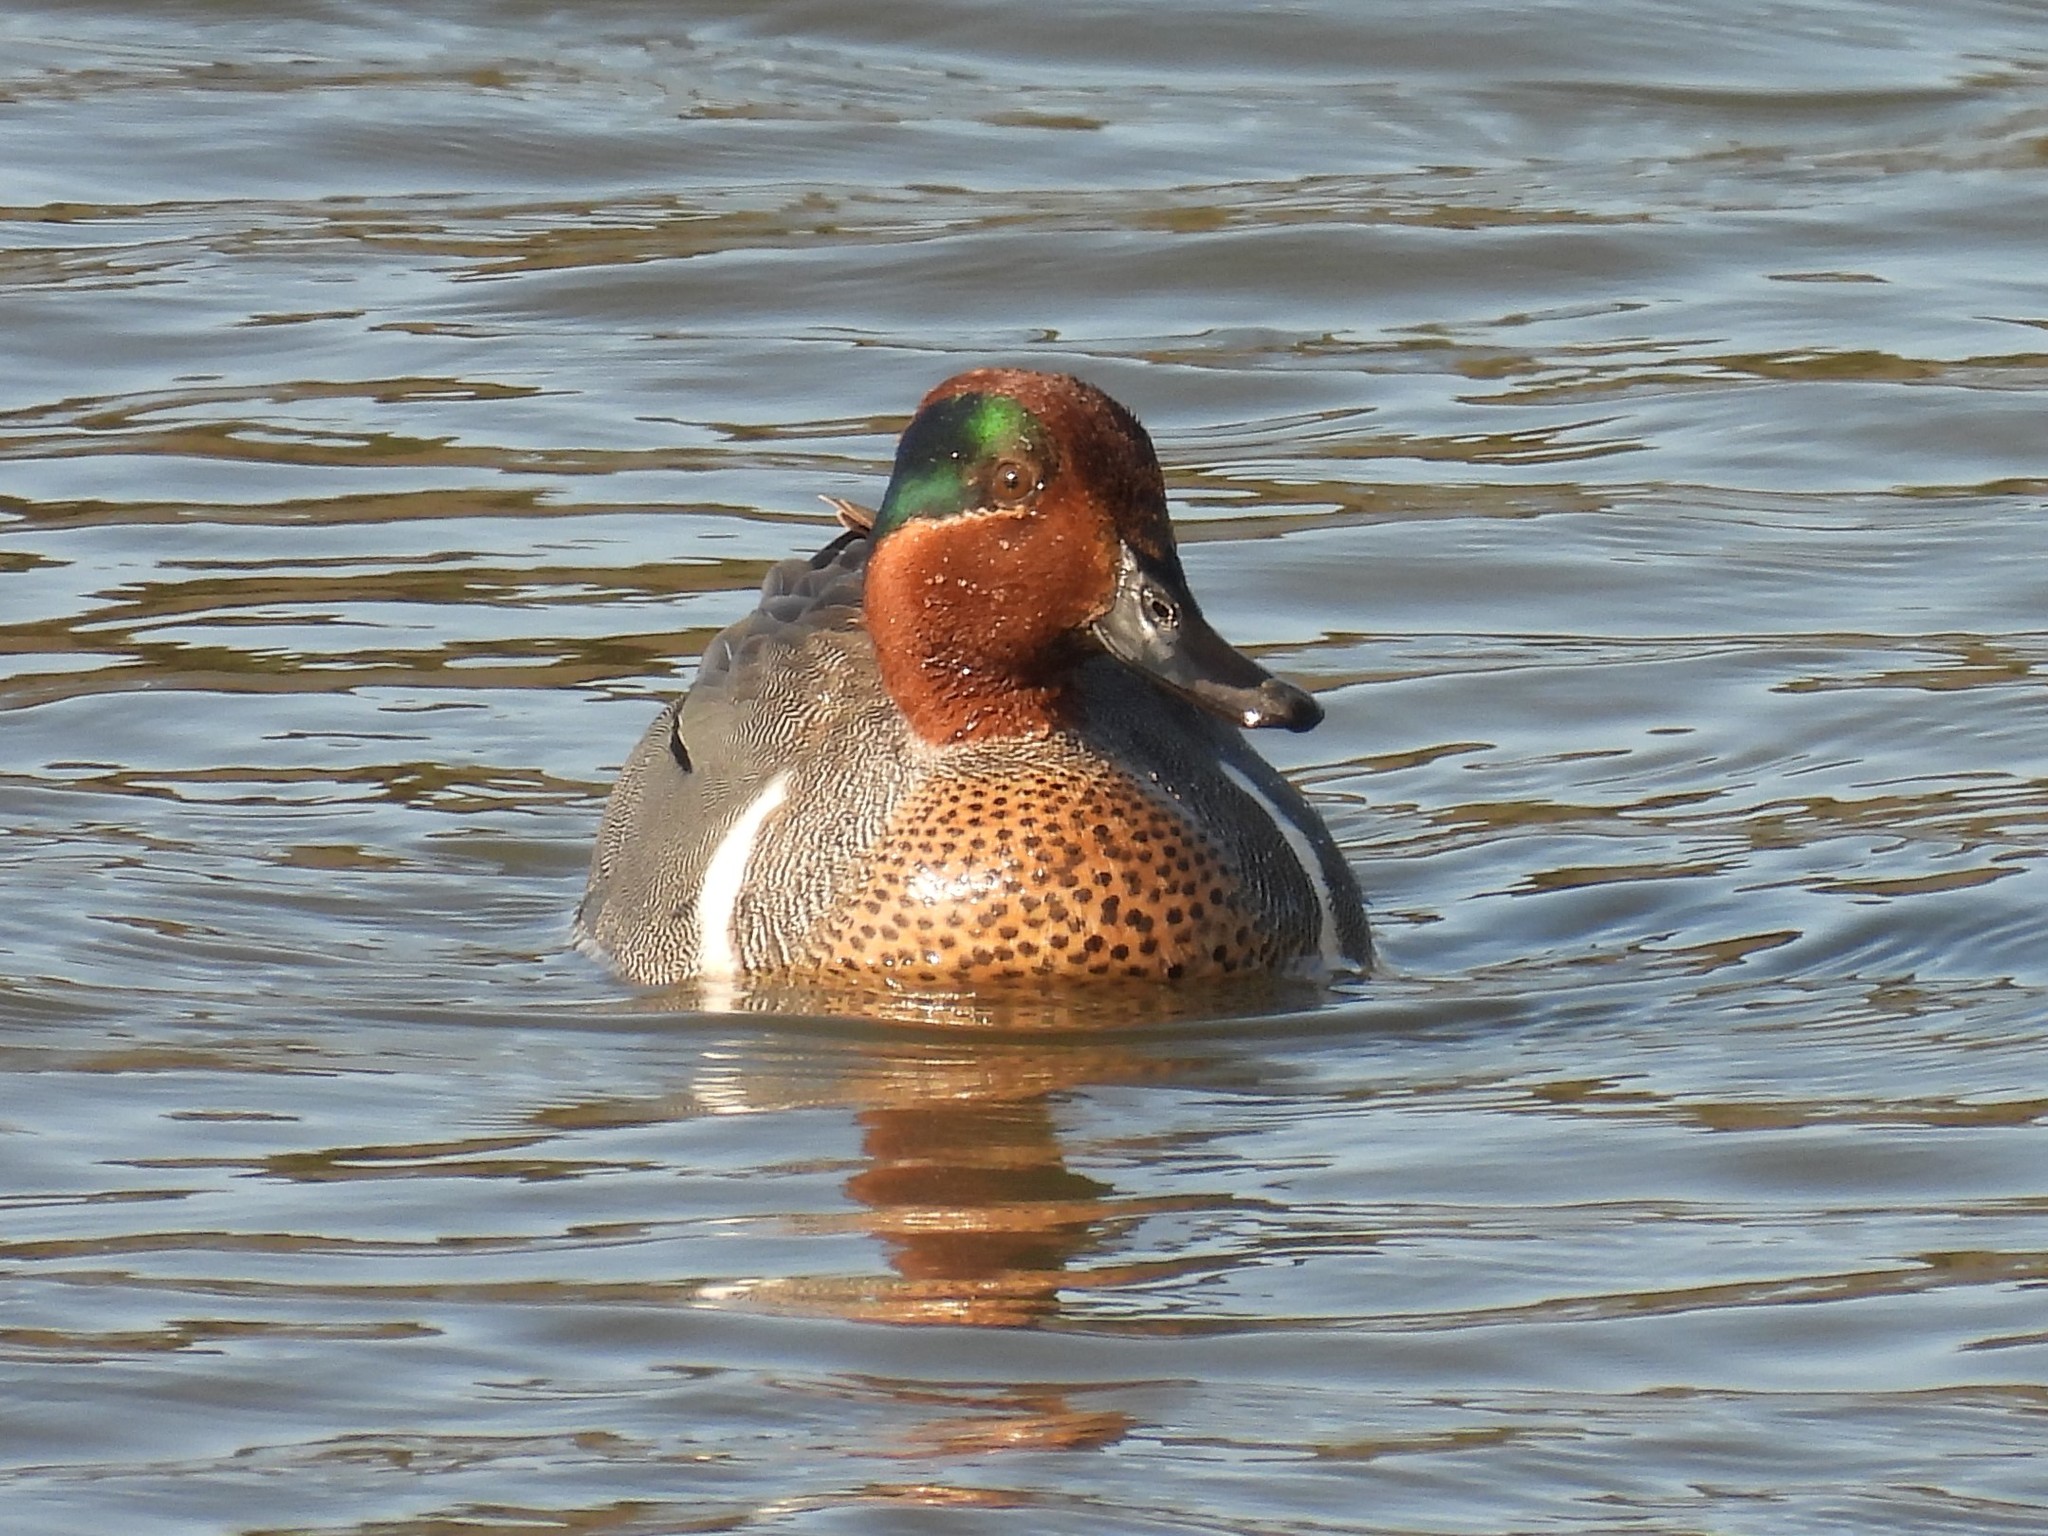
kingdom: Animalia
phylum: Chordata
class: Aves
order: Anseriformes
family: Anatidae
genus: Anas
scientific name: Anas crecca
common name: Eurasian teal
